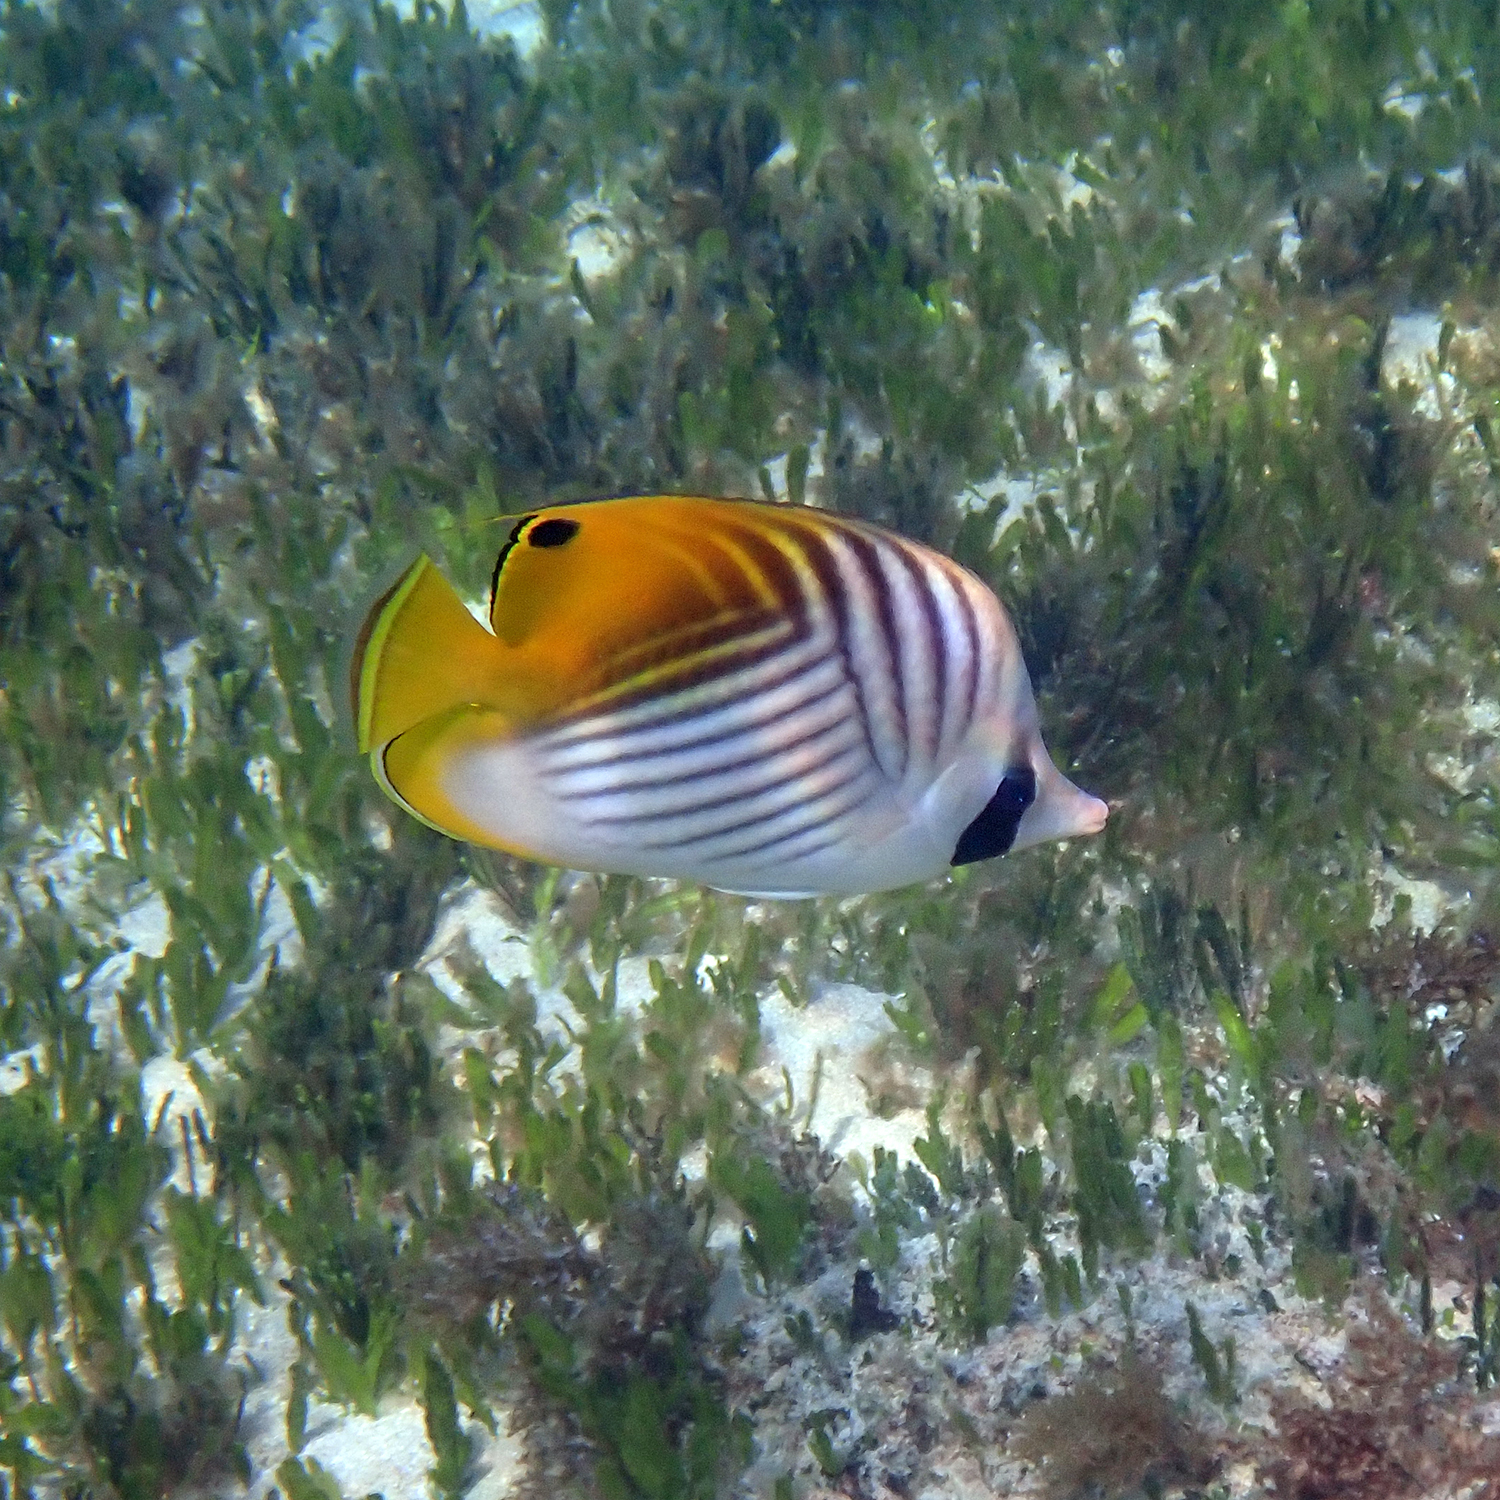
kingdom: Animalia
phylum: Chordata
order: Perciformes
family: Chaetodontidae
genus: Chaetodon
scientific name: Chaetodon auriga
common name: Threadfin butterflyfish
